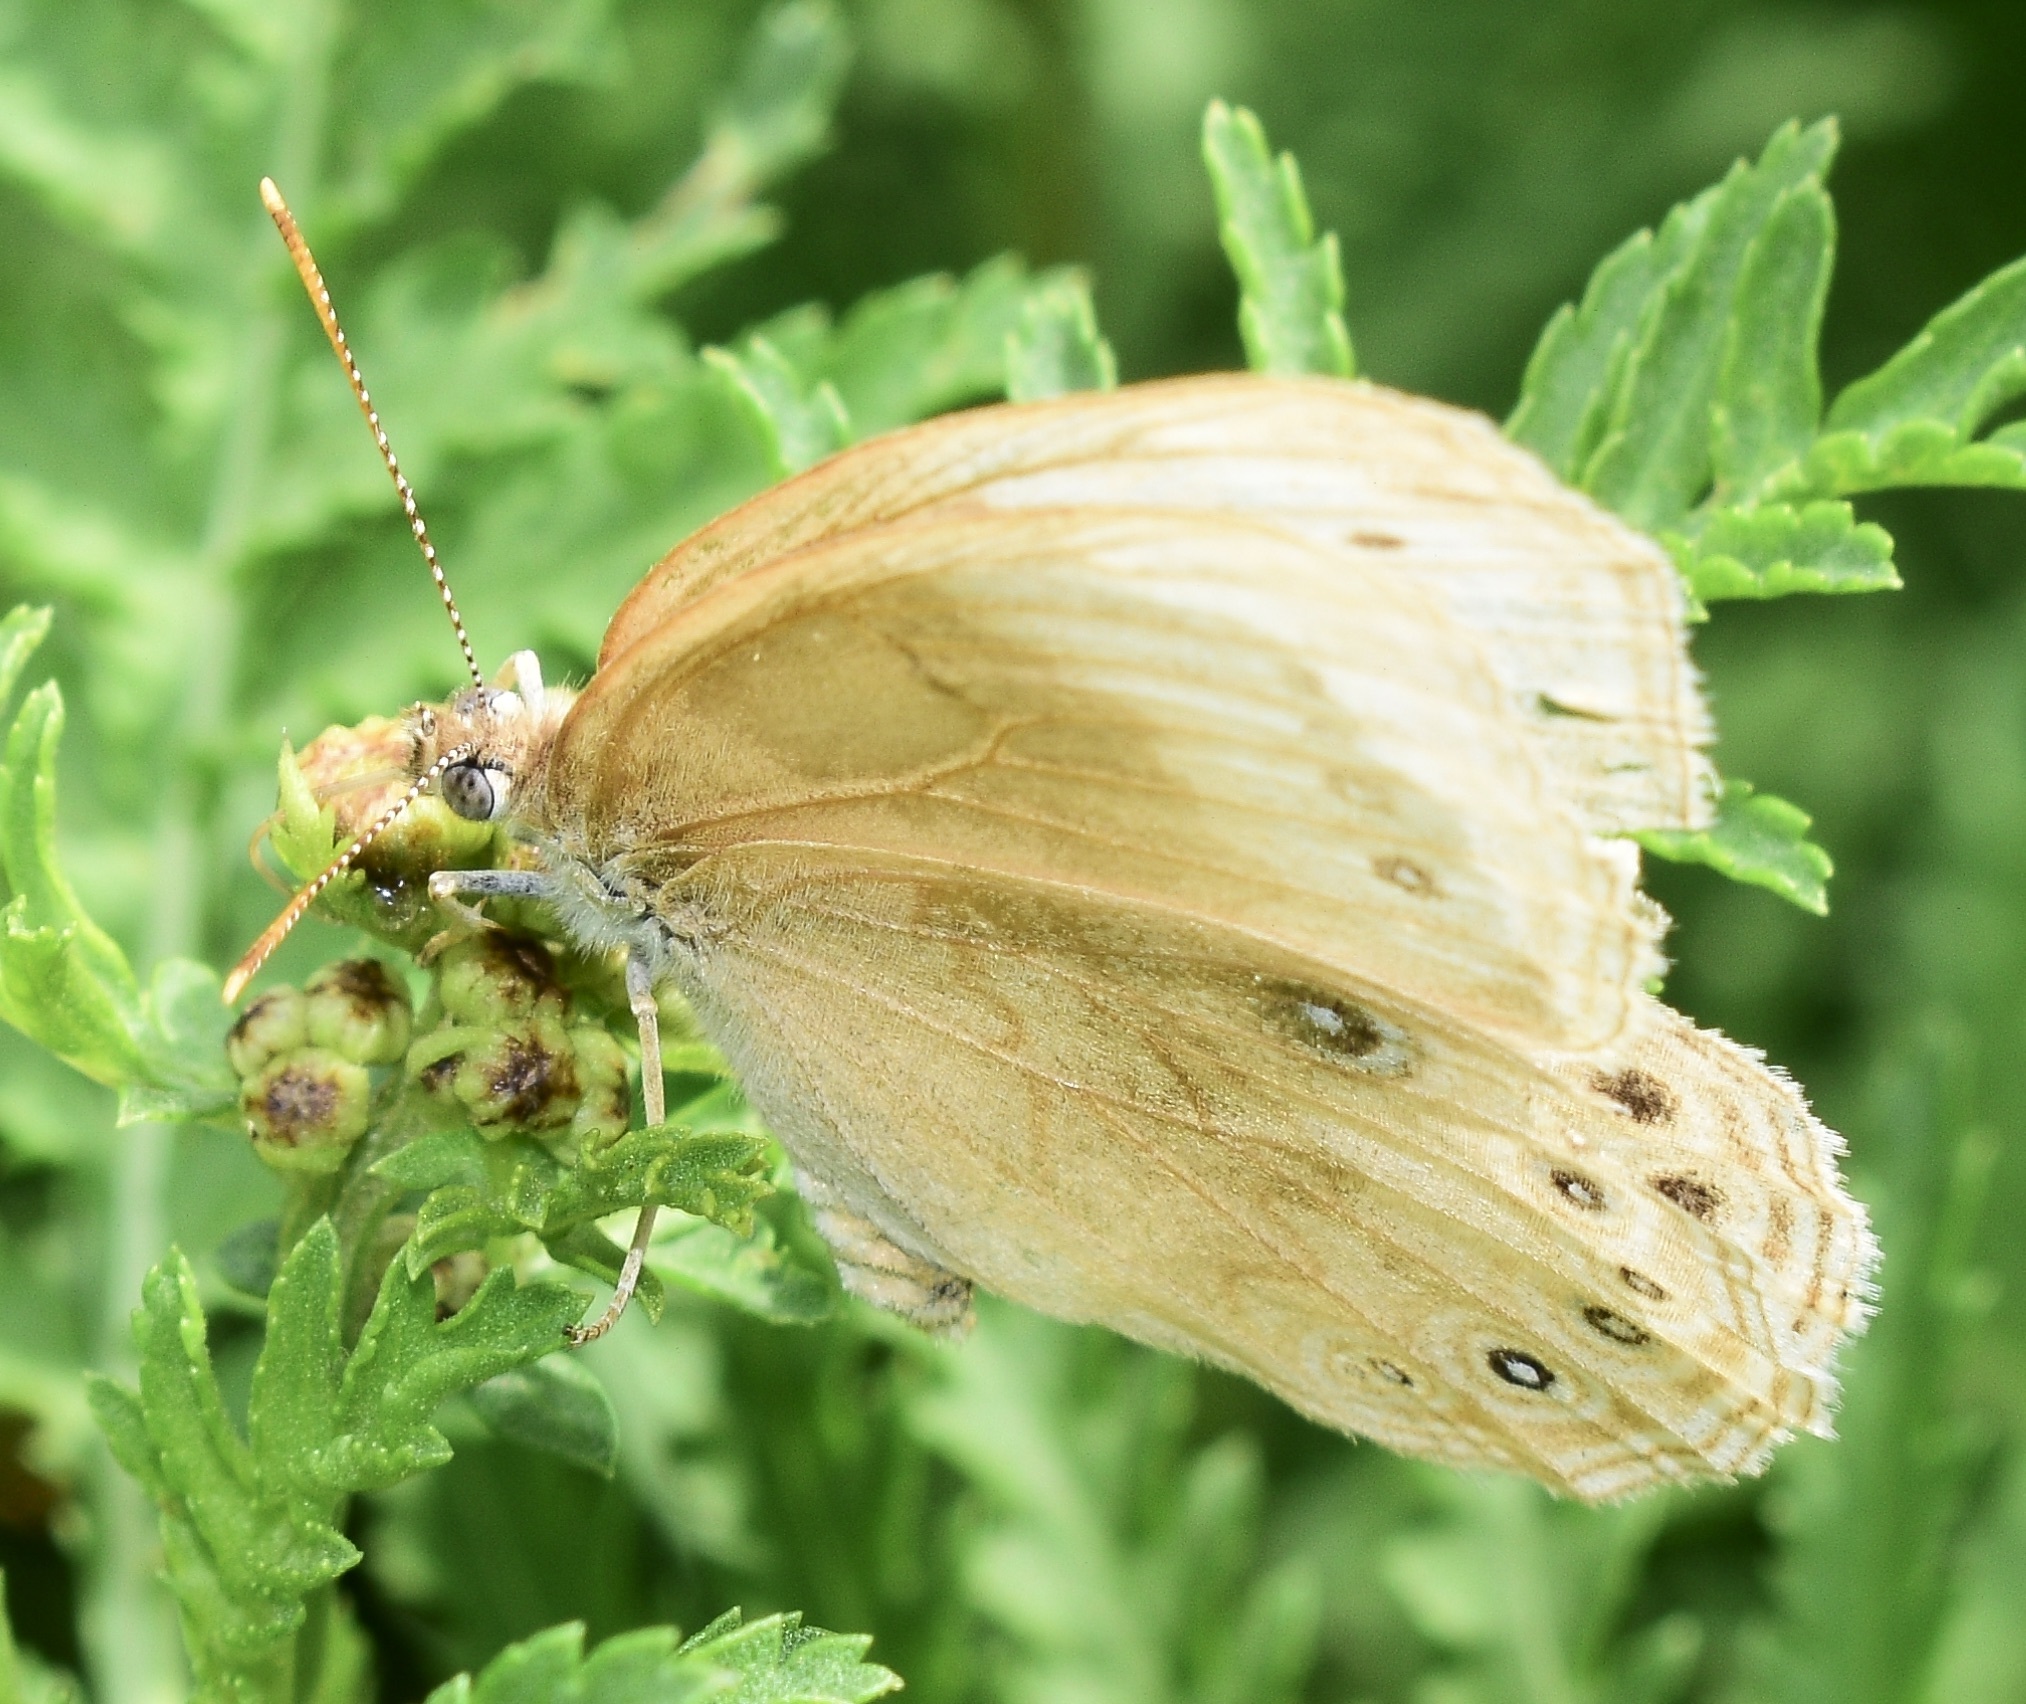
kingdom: Animalia
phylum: Arthropoda
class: Insecta
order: Lepidoptera
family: Nymphalidae
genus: Lethe
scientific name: Lethe eurydice
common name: Eyed brown
